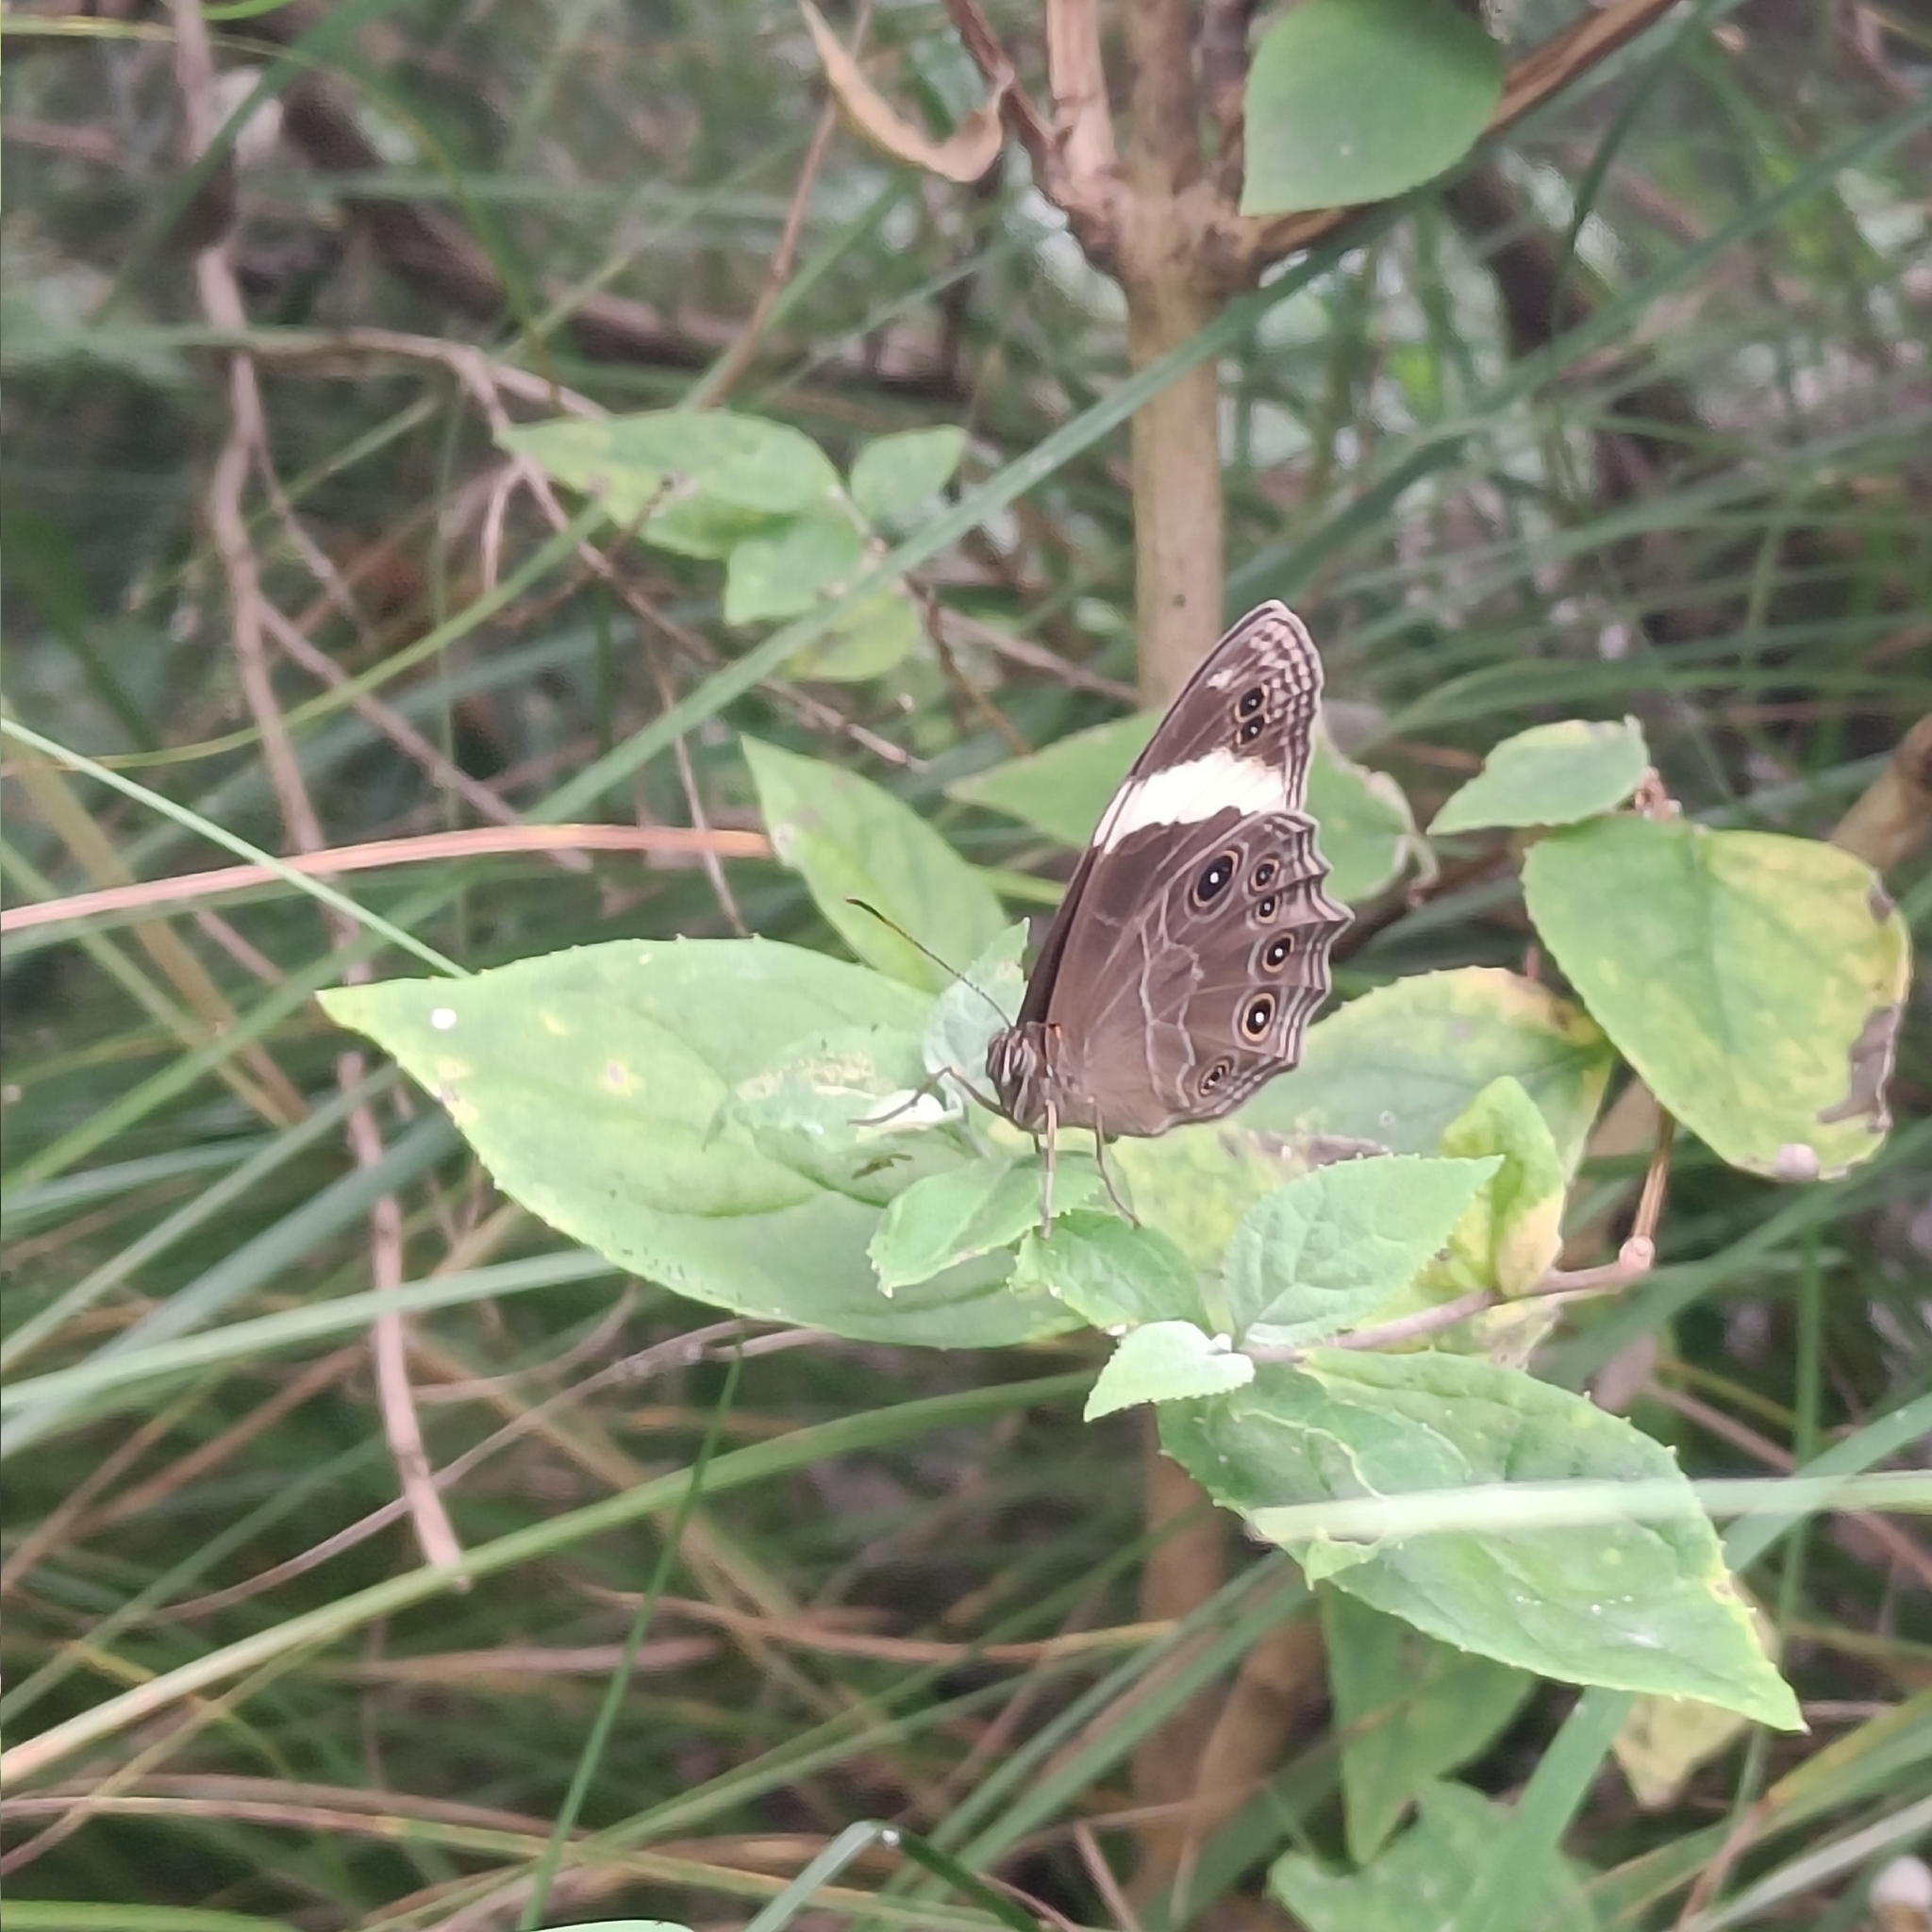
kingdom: Animalia
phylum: Arthropoda
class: Insecta
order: Lepidoptera
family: Nymphalidae
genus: Lethe
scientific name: Lethe verma
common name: Straight-banded treebrown
